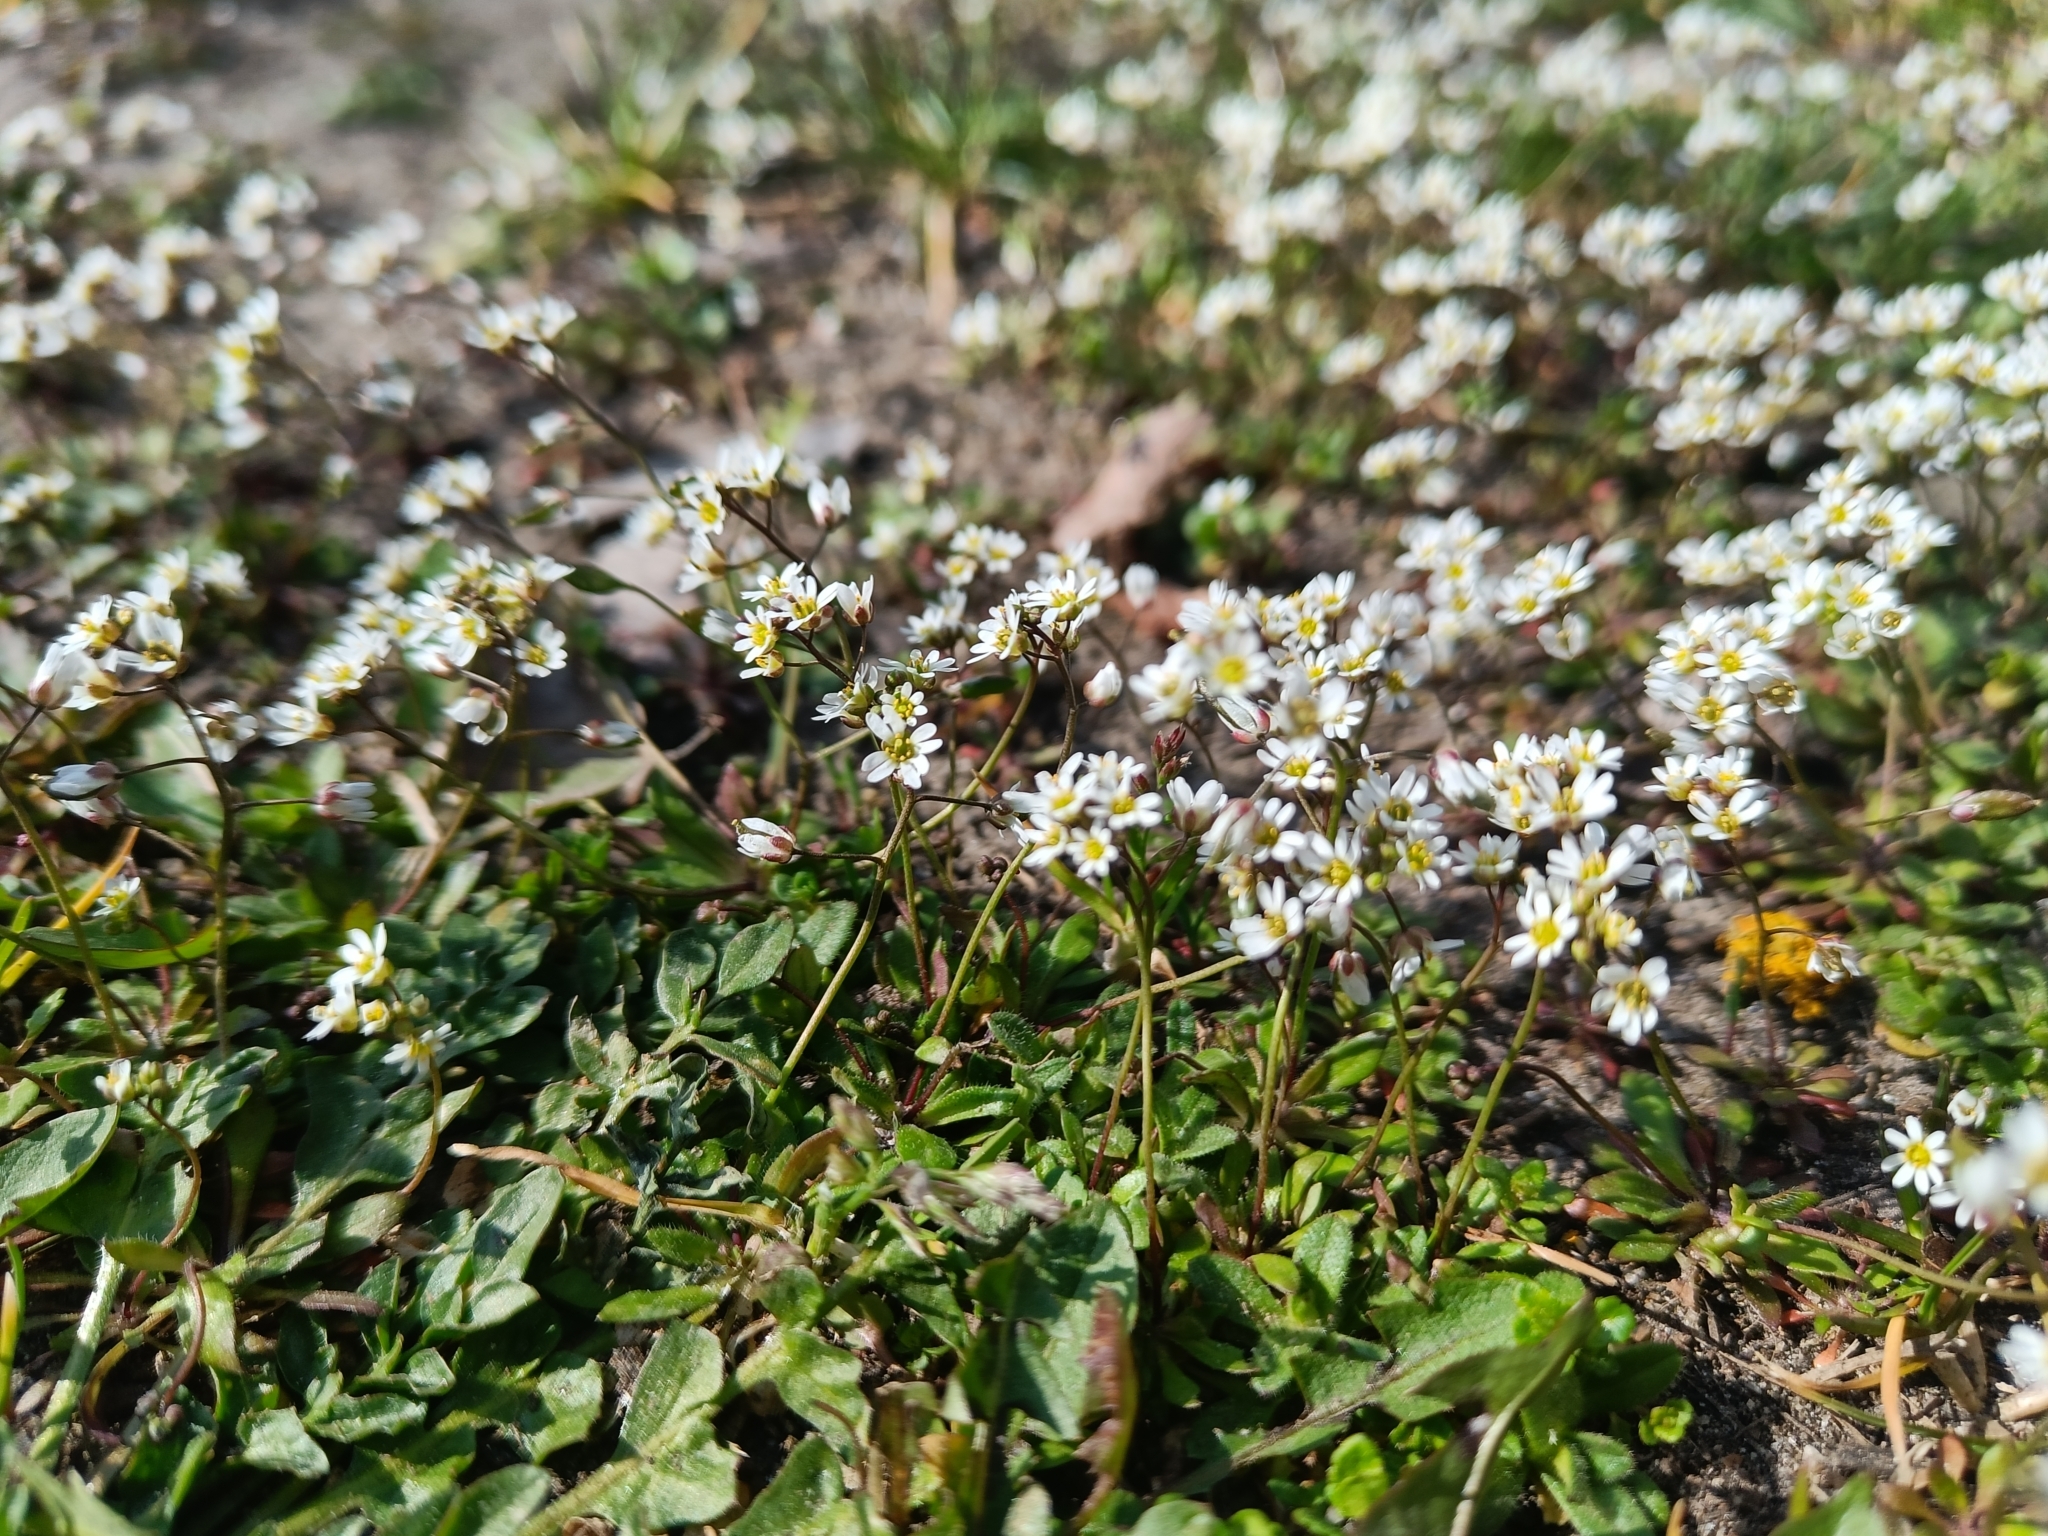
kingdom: Plantae
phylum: Tracheophyta
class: Magnoliopsida
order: Brassicales
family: Brassicaceae
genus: Draba
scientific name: Draba verna
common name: Spring draba
